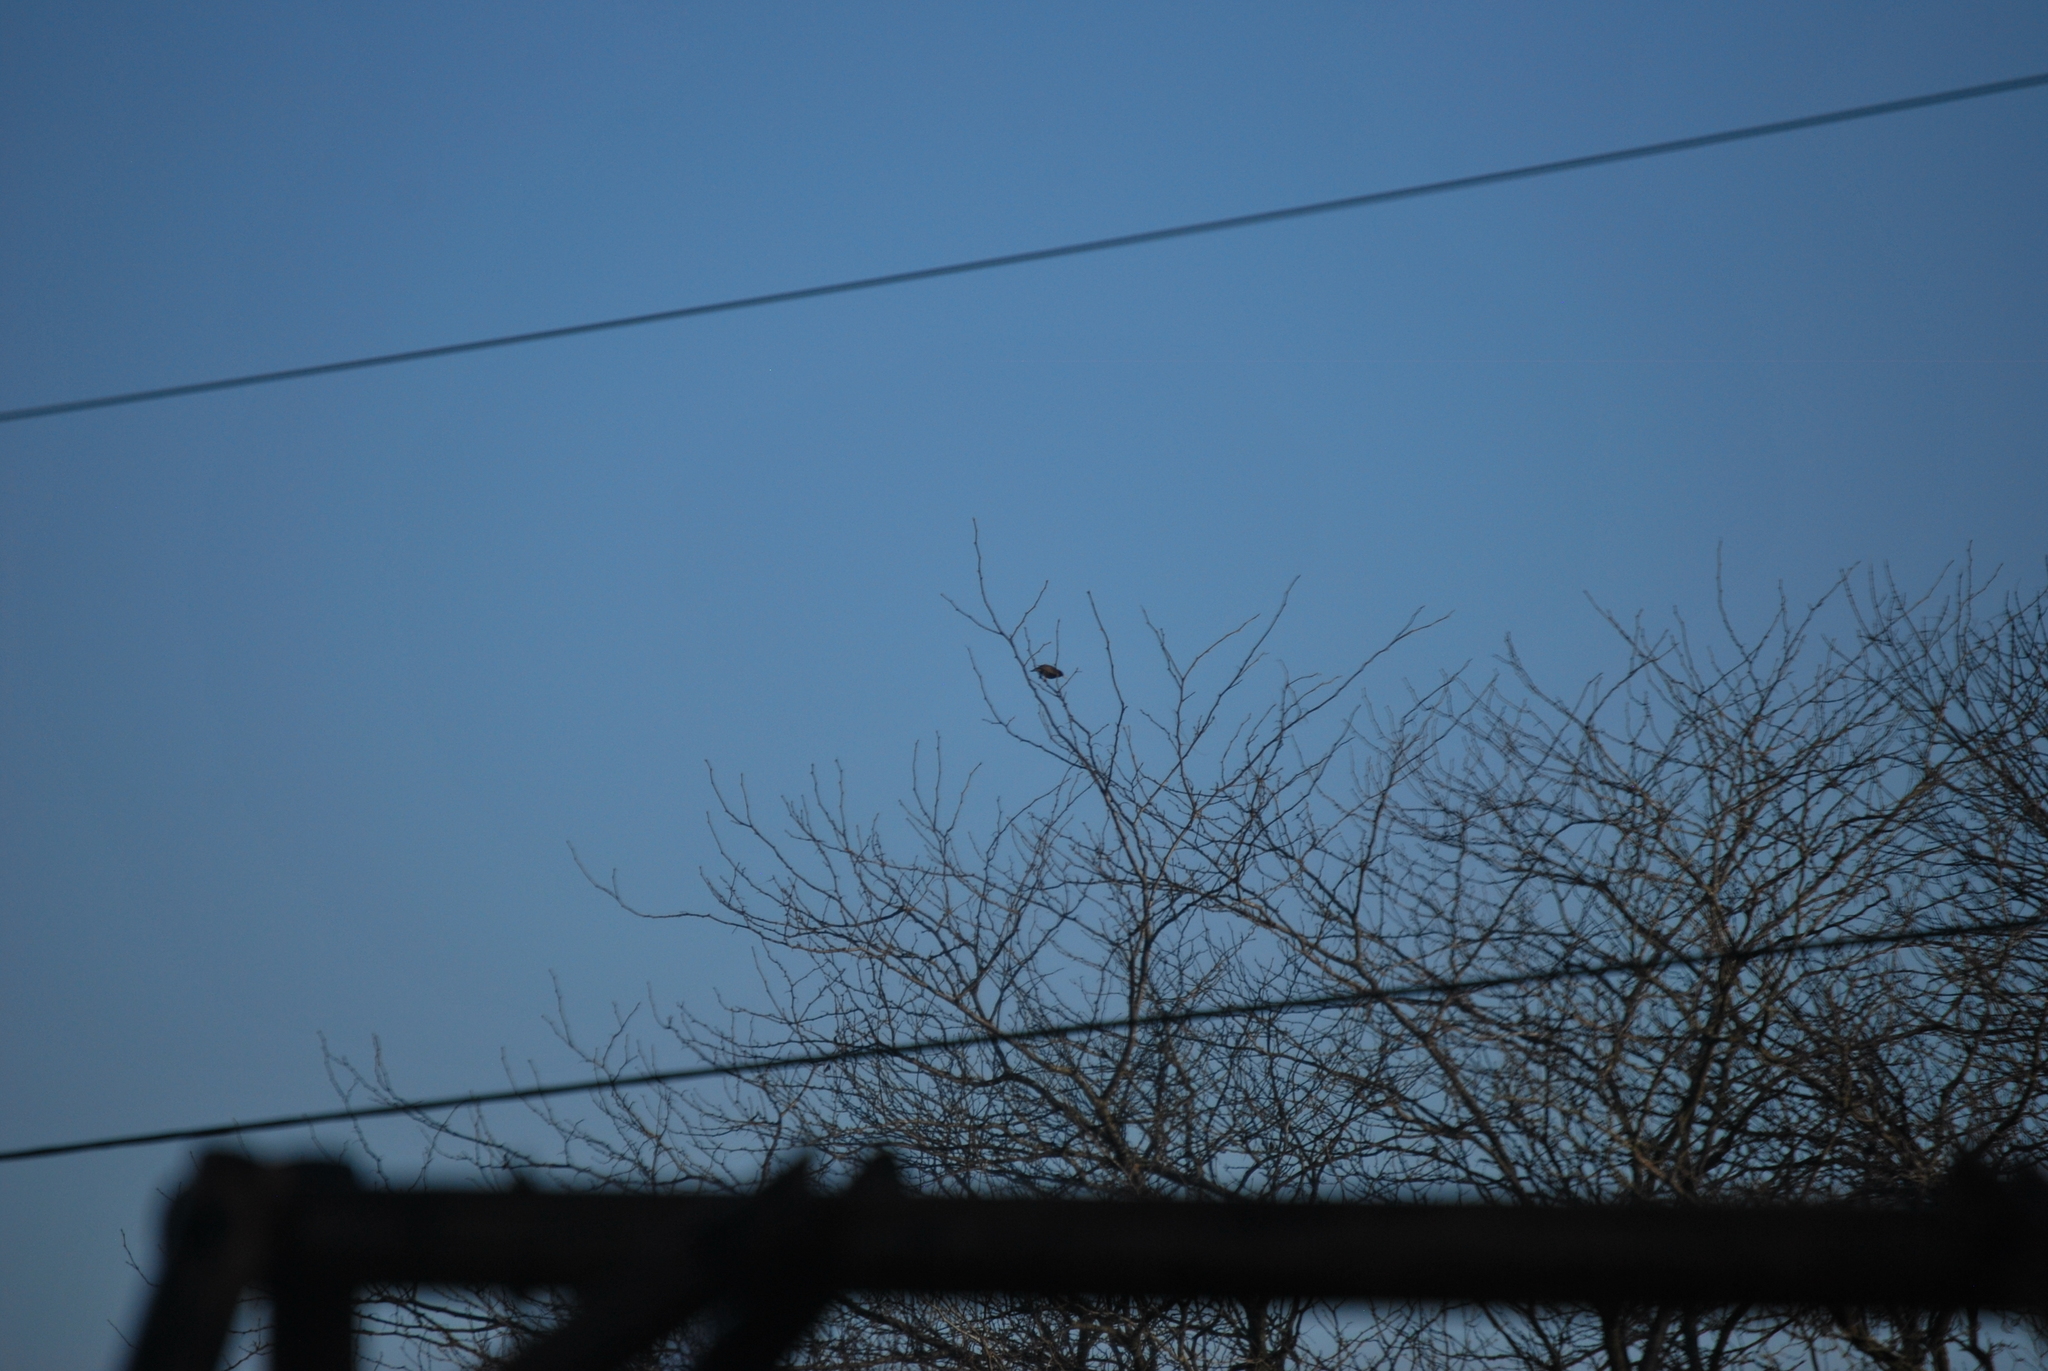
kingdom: Animalia
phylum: Chordata
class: Aves
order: Passeriformes
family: Sturnidae
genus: Sturnus
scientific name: Sturnus vulgaris
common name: Common starling
